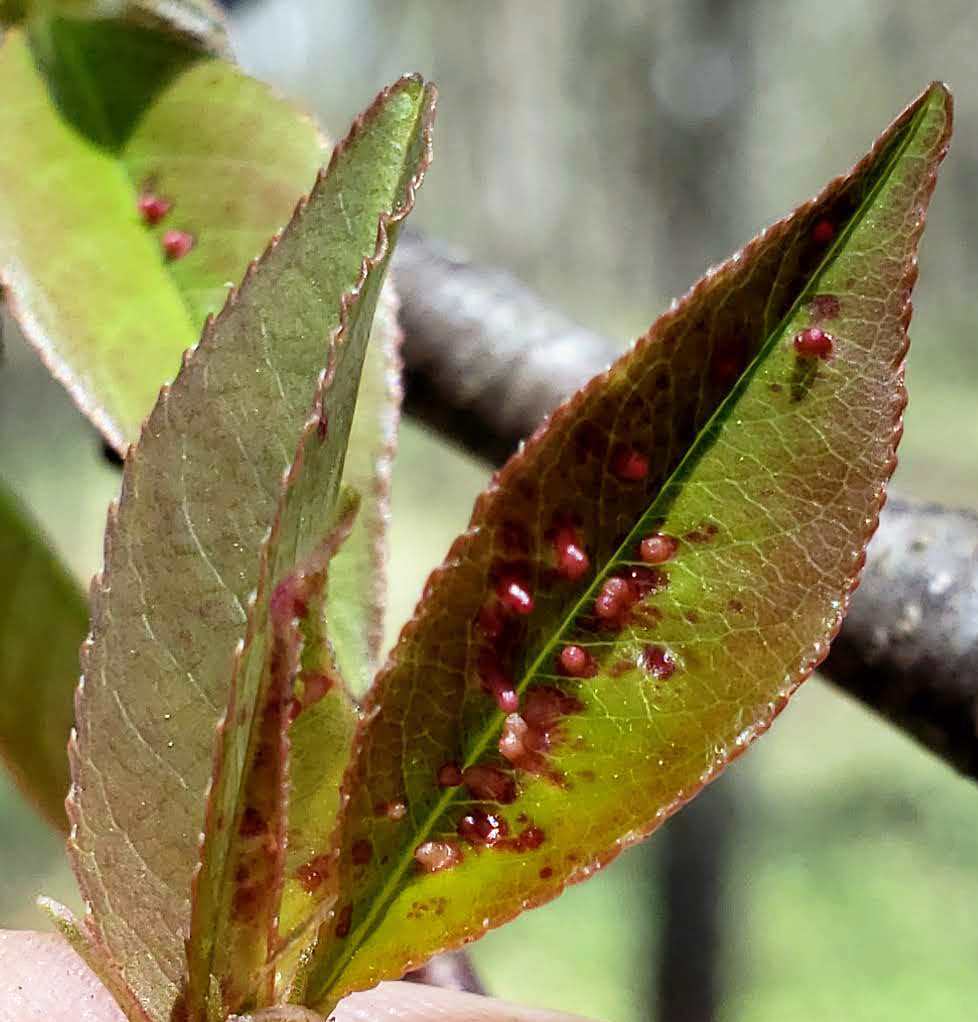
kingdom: Animalia
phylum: Arthropoda
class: Arachnida
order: Trombidiformes
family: Eriophyidae
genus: Eriophyes
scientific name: Eriophyes
